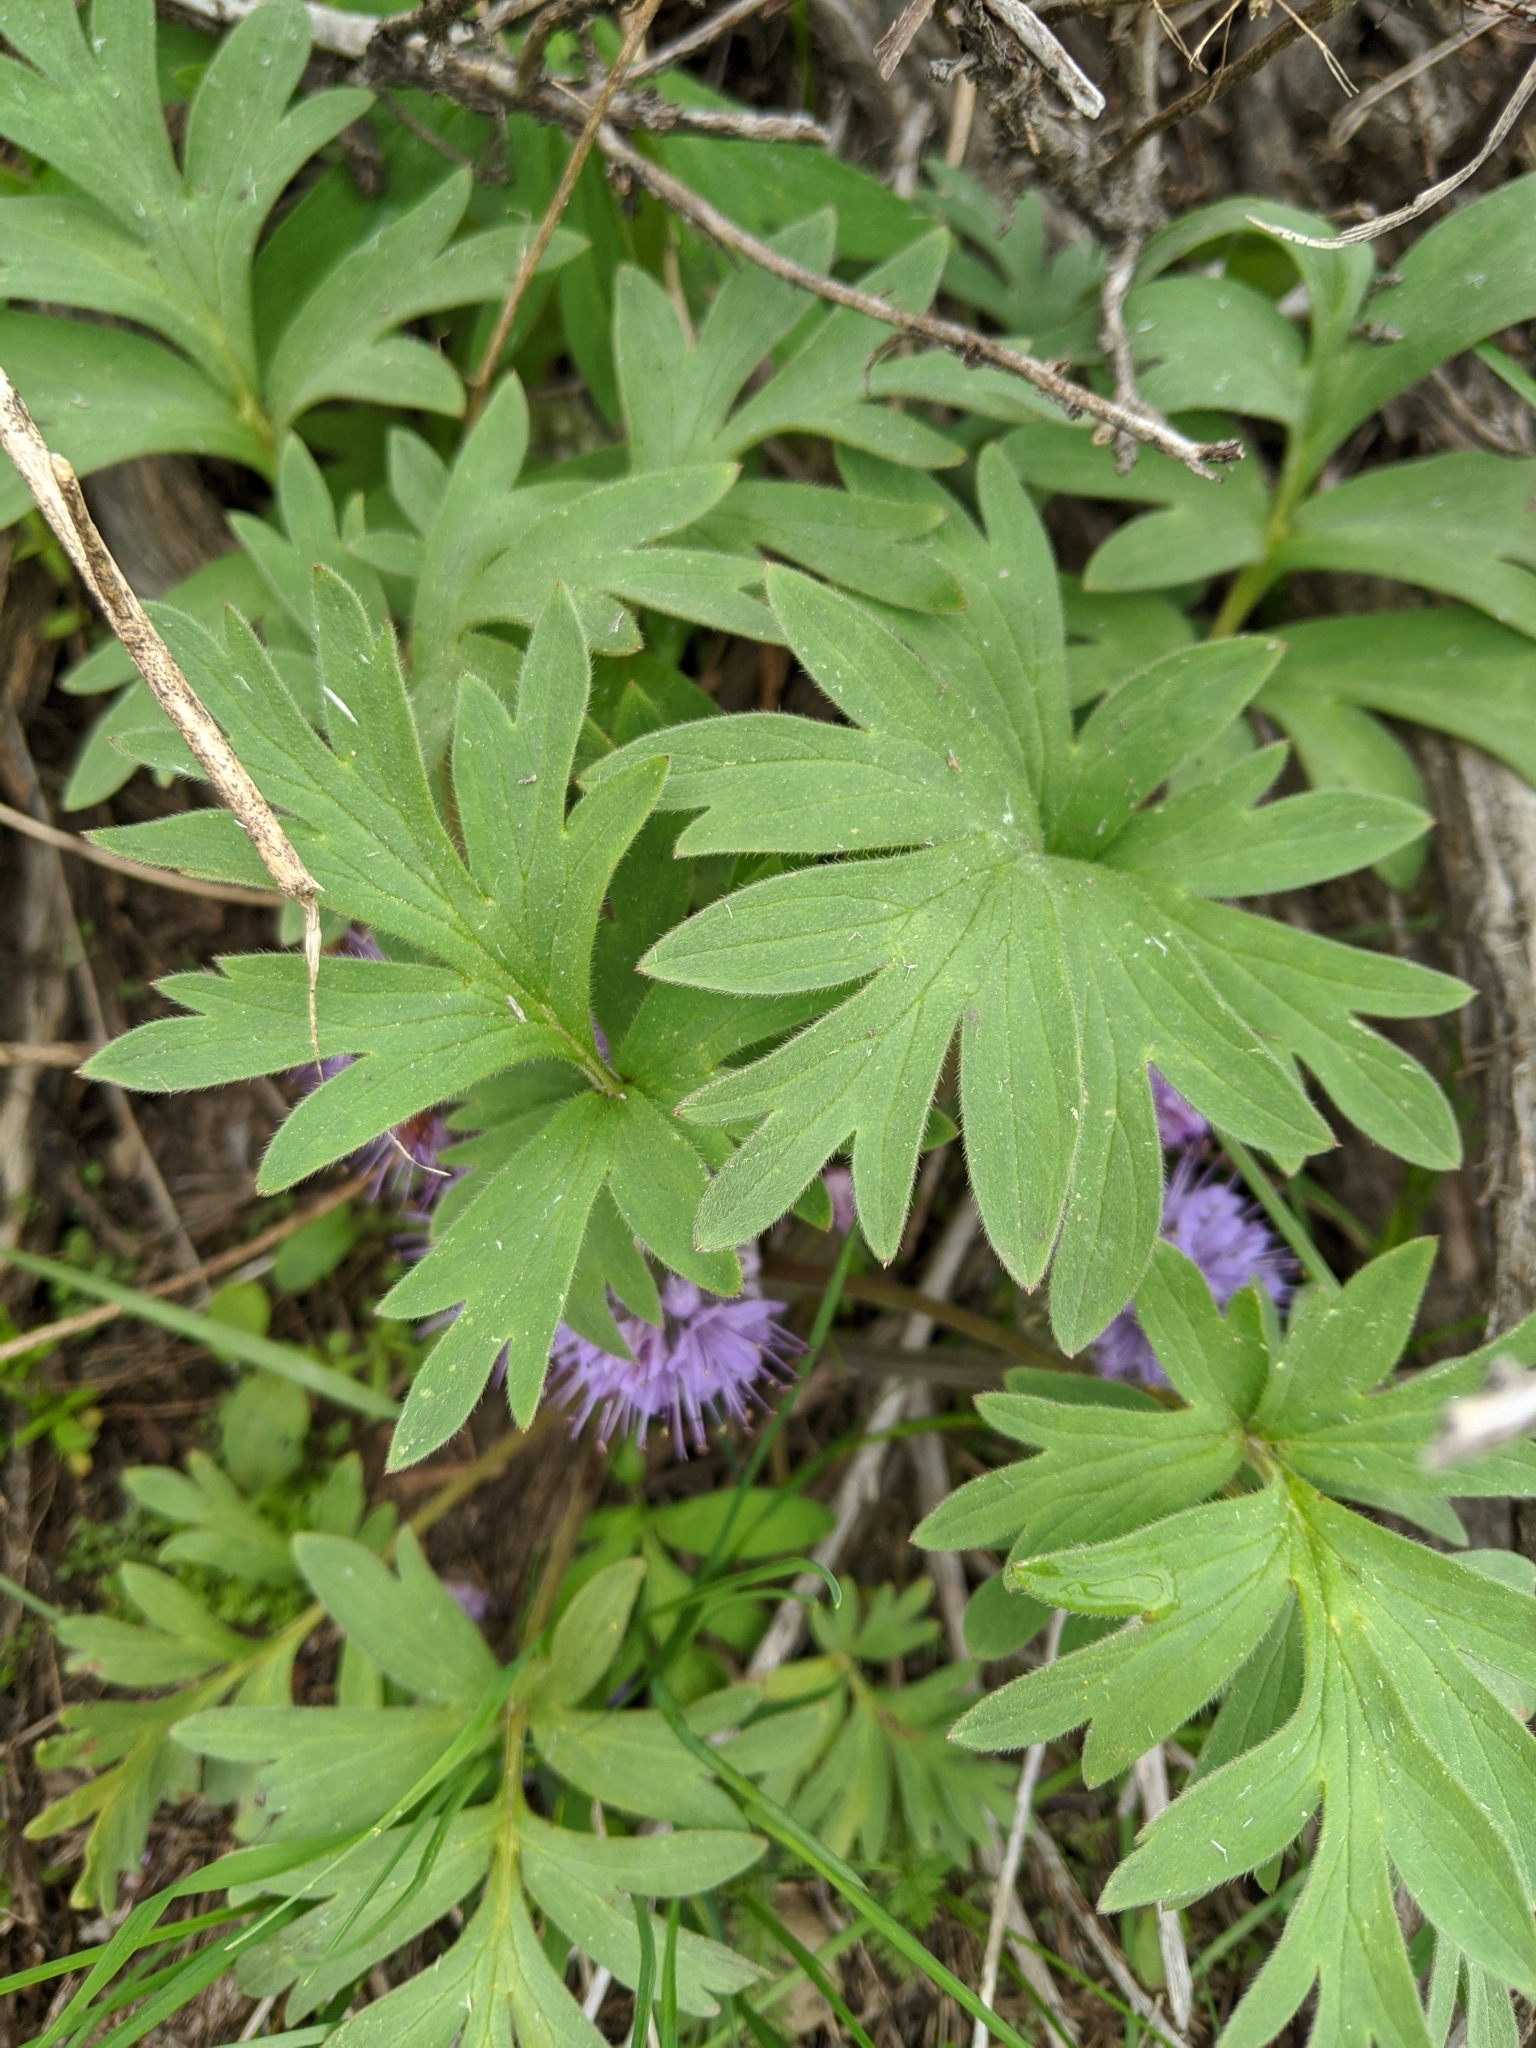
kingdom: Plantae
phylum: Tracheophyta
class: Magnoliopsida
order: Boraginales
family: Hydrophyllaceae
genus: Hydrophyllum
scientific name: Hydrophyllum capitatum
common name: Woollen-breeches
